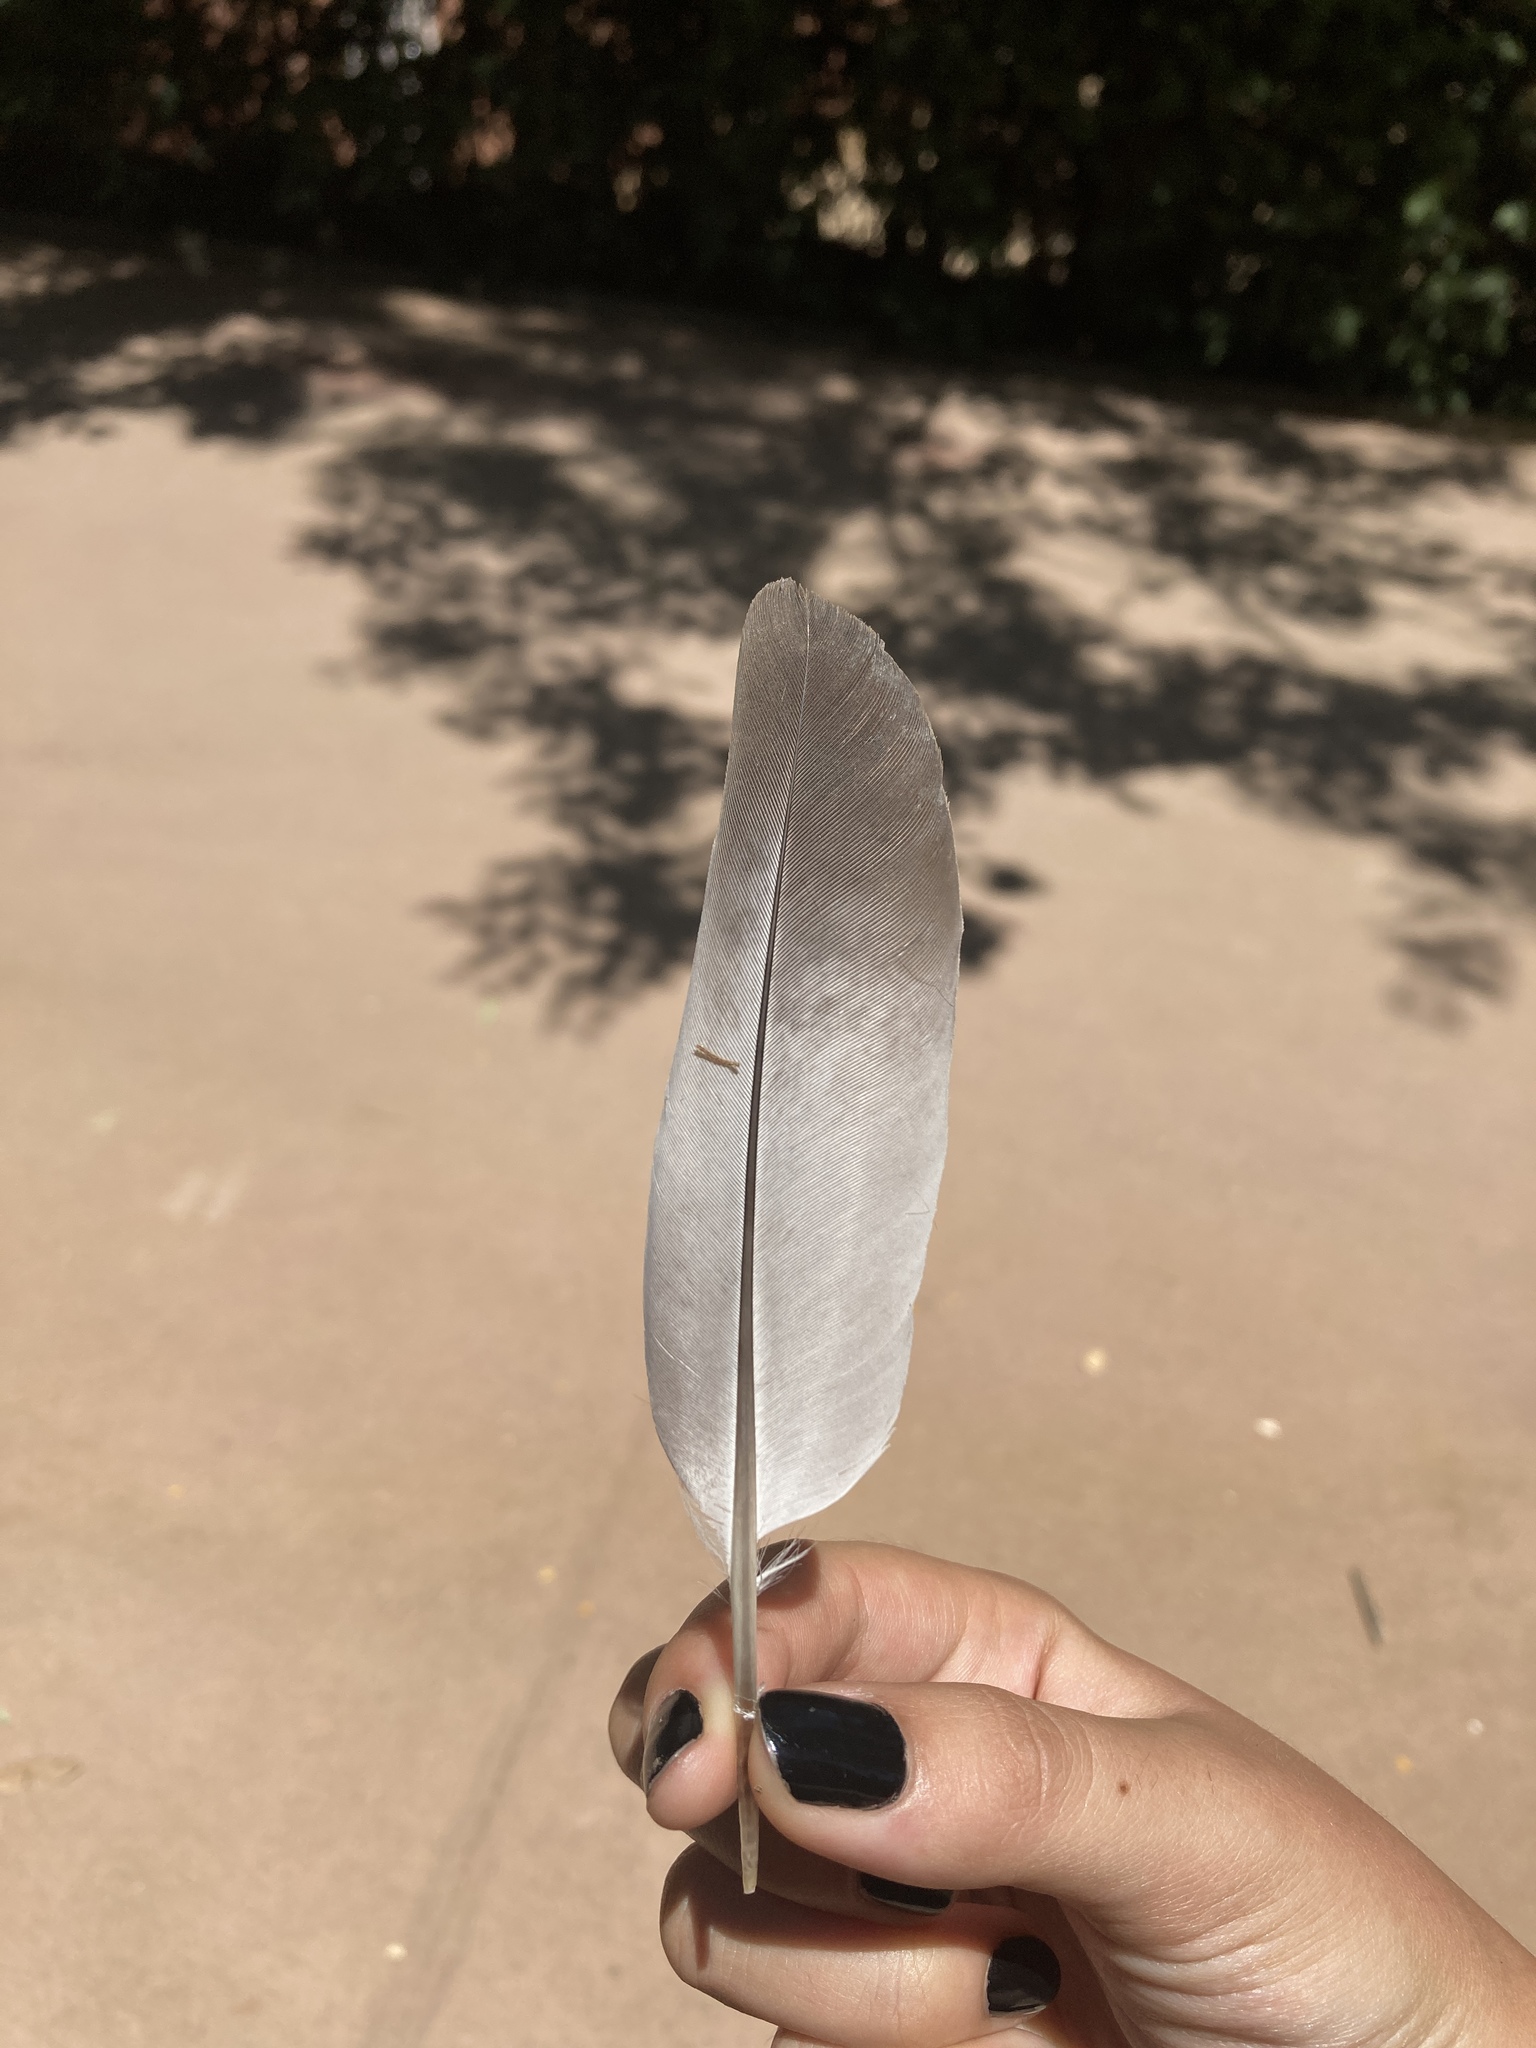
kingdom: Animalia
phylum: Chordata
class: Aves
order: Columbiformes
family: Columbidae
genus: Columba
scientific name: Columba livia
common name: Rock pigeon
